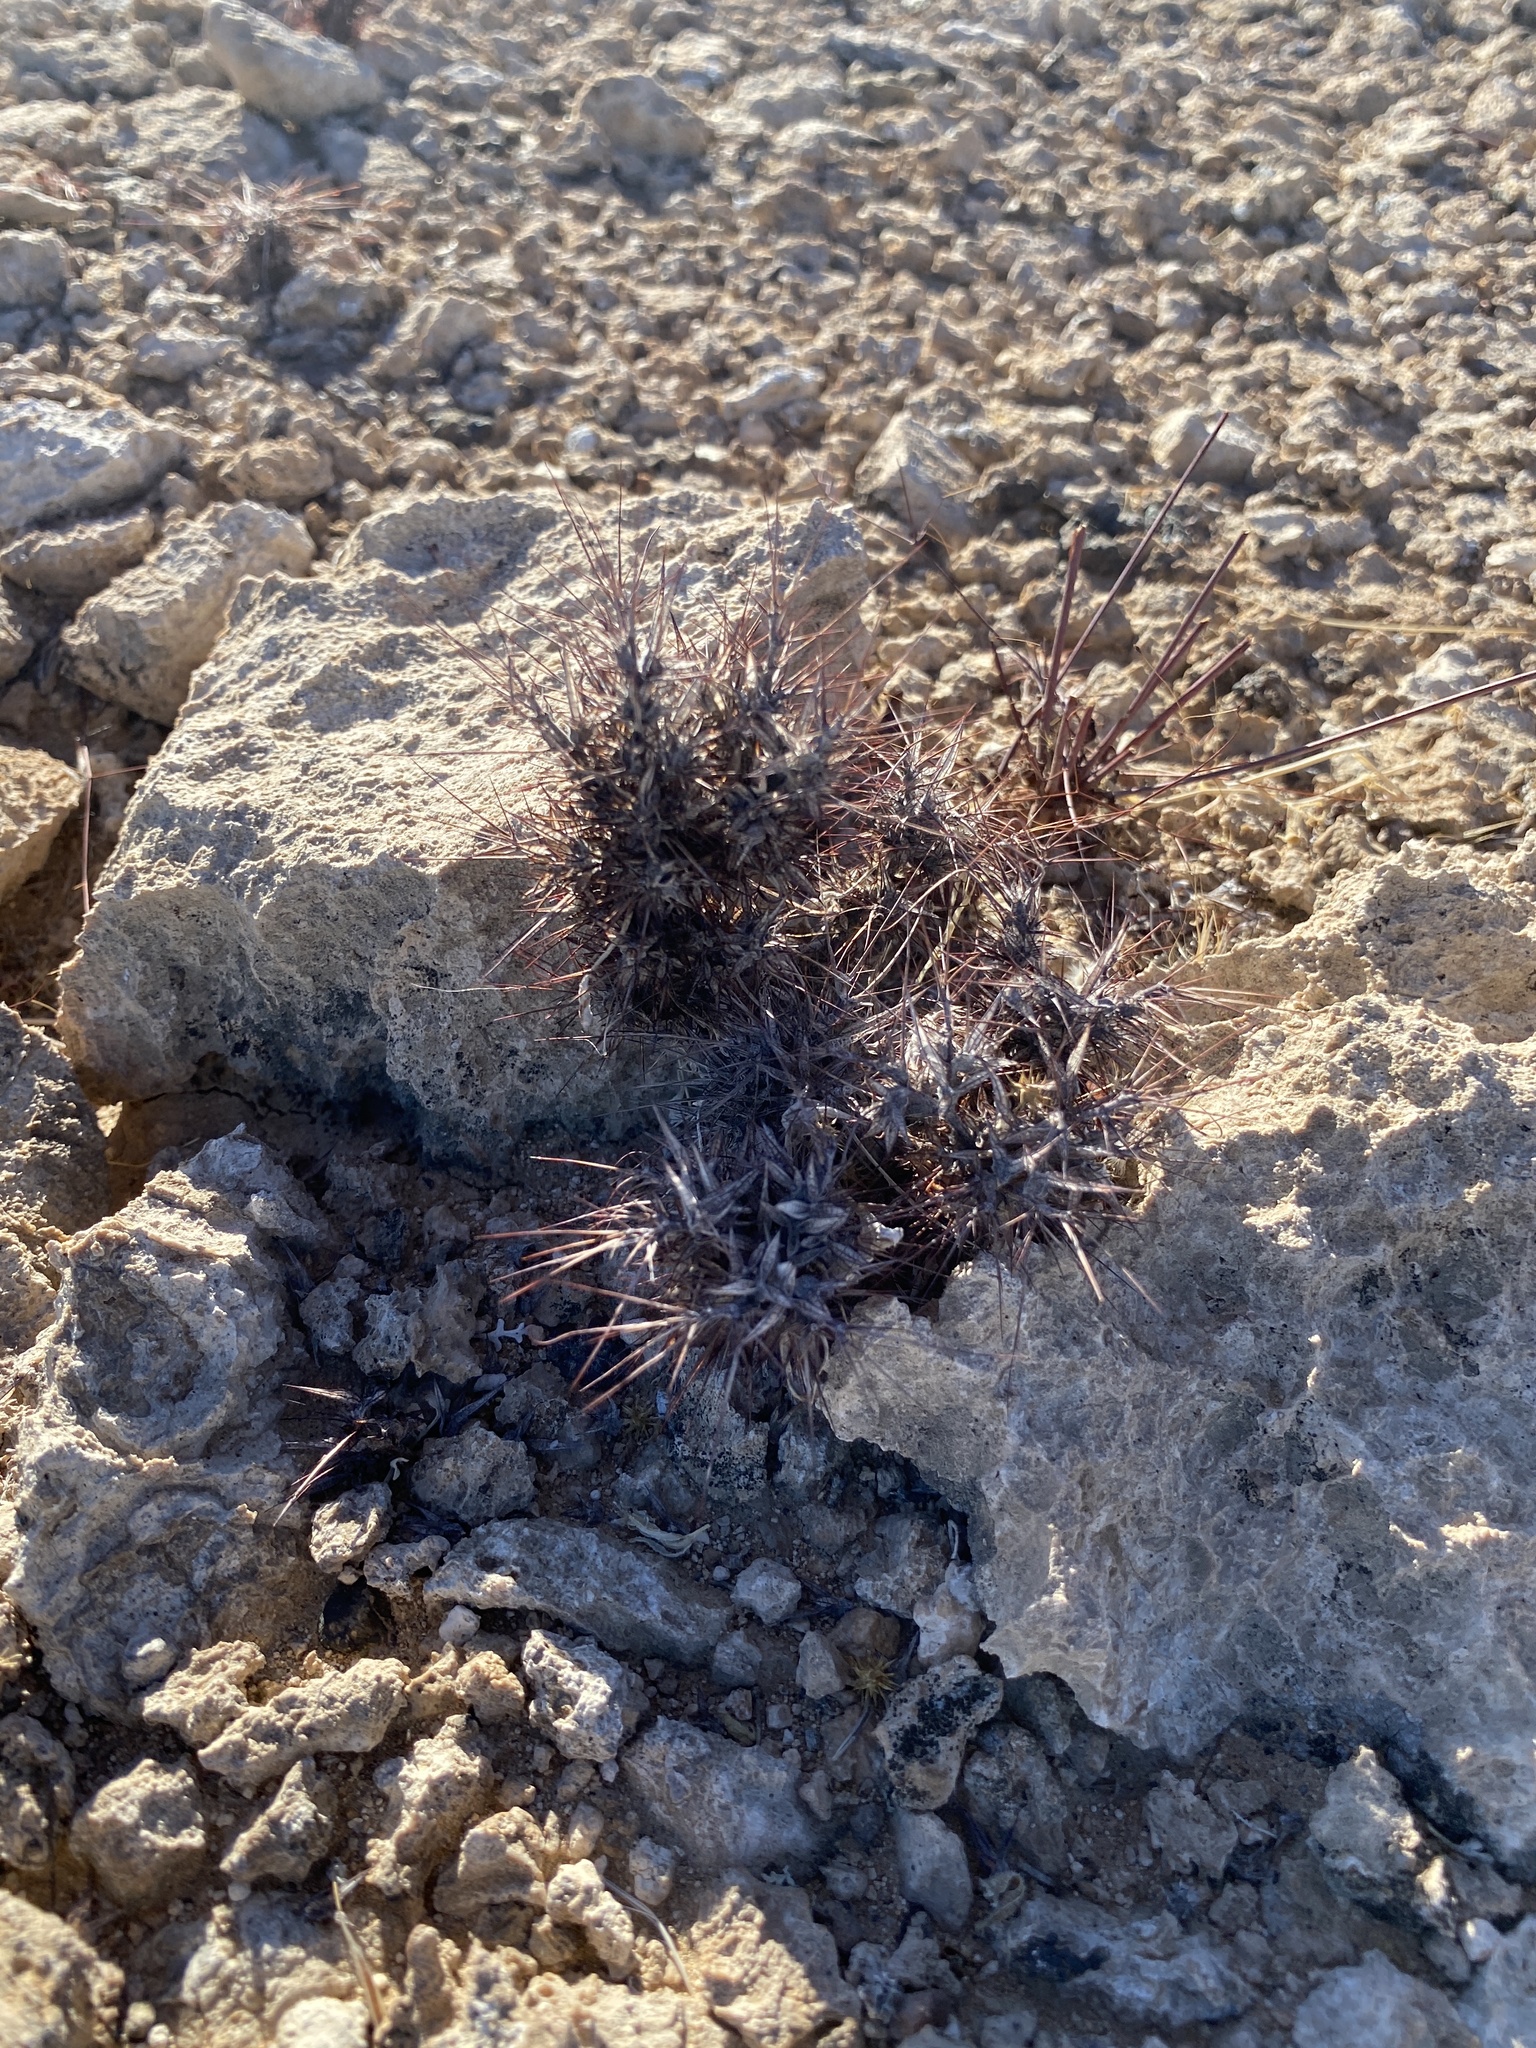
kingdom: Plantae
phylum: Tracheophyta
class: Magnoliopsida
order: Caryophyllales
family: Polygonaceae
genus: Chorizanthe
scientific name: Chorizanthe rigida
